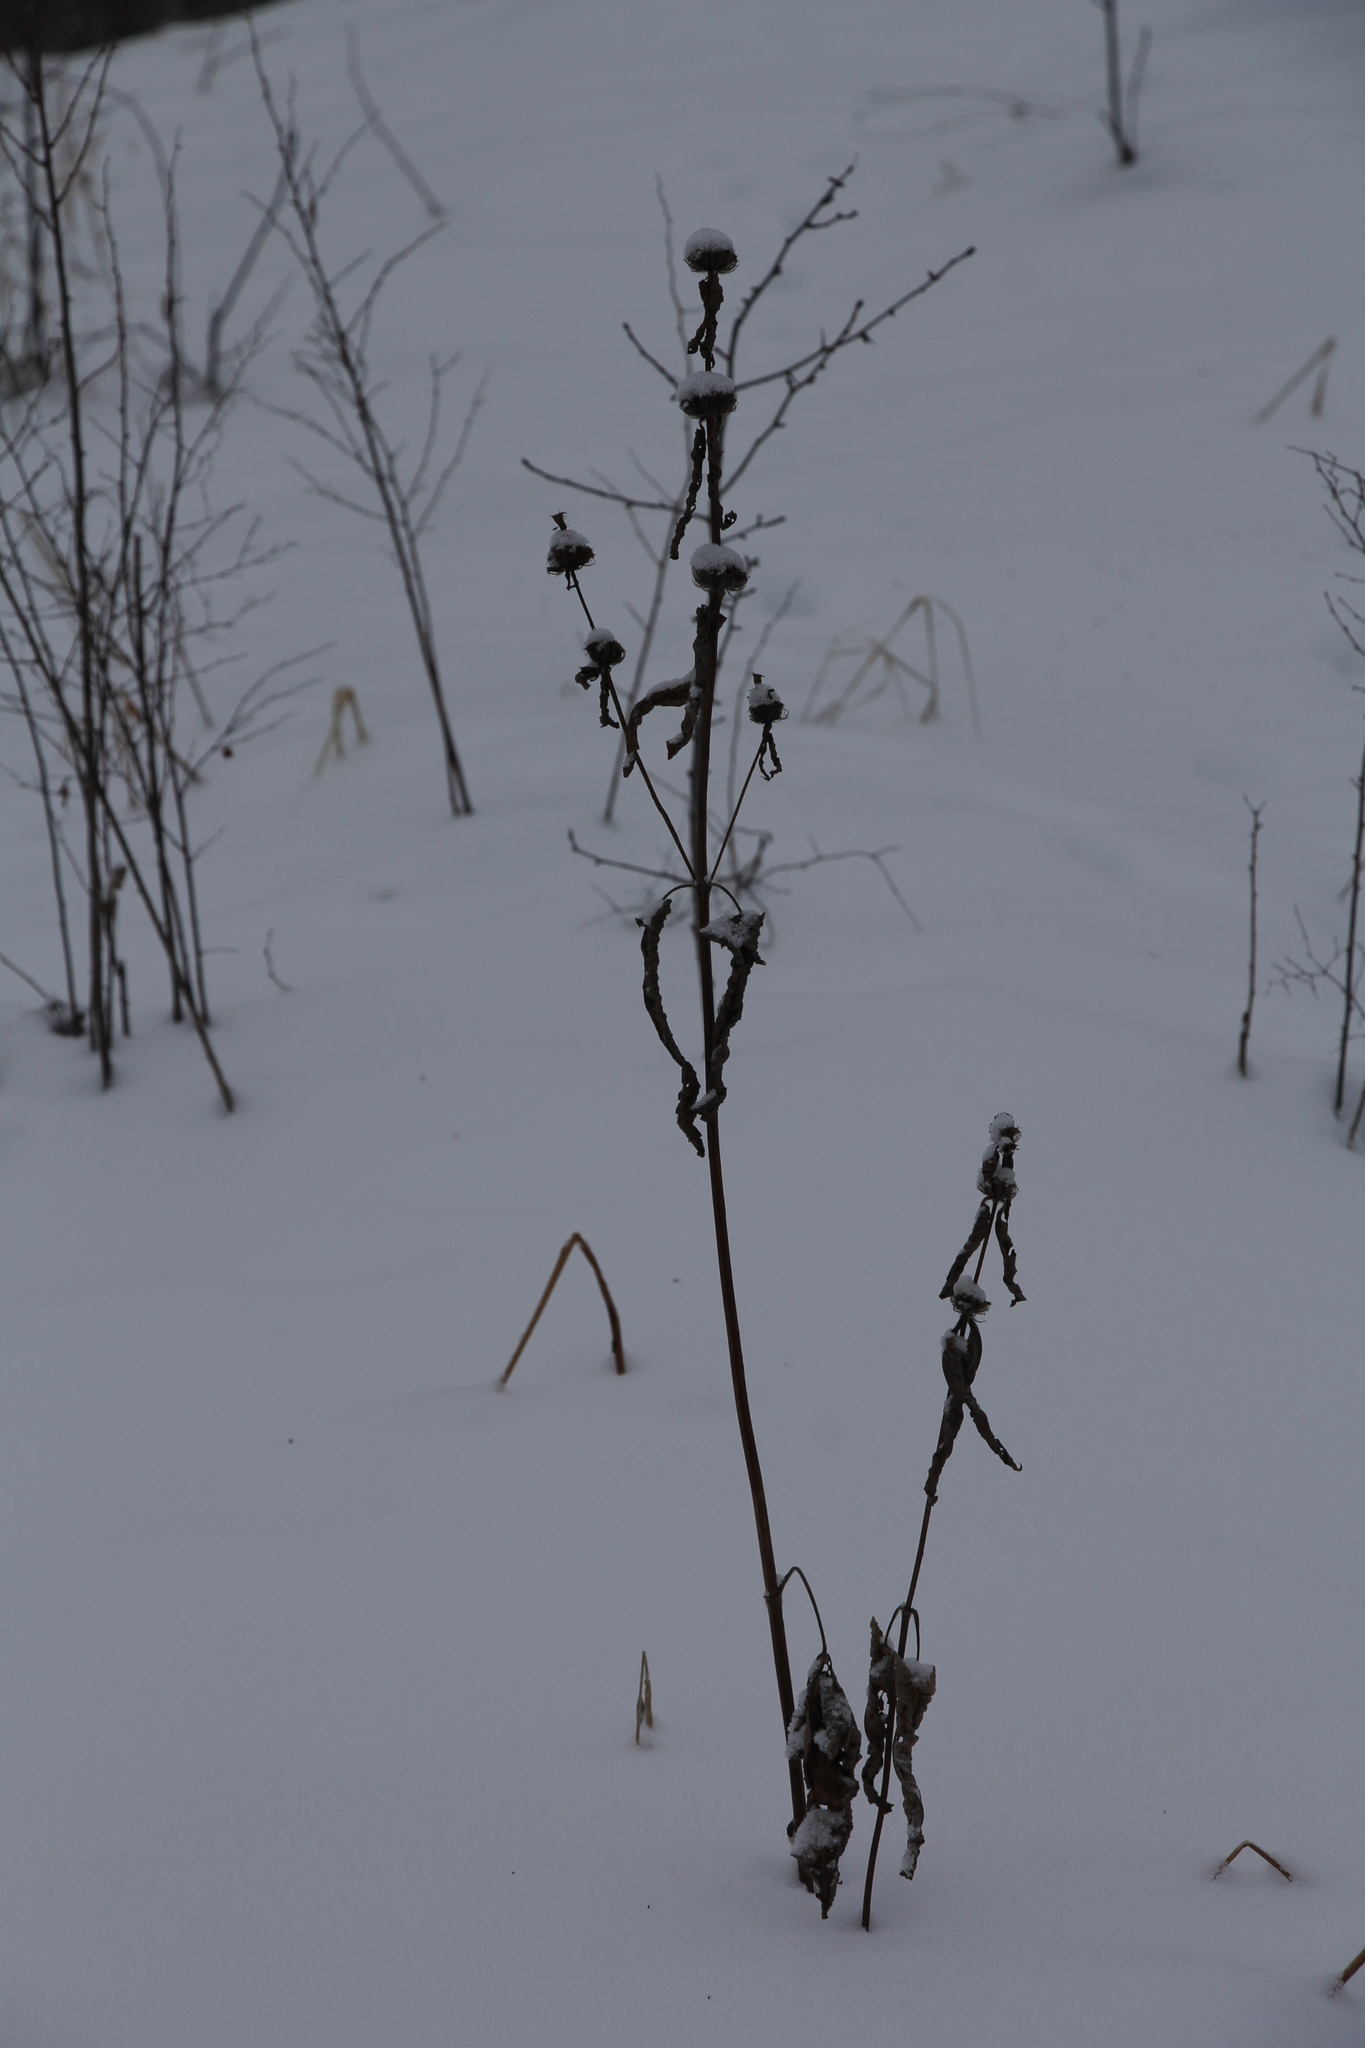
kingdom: Plantae
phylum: Tracheophyta
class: Magnoliopsida
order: Lamiales
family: Lamiaceae
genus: Phlomoides
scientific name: Phlomoides tuberosa
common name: Tuberous jerusalem sage
